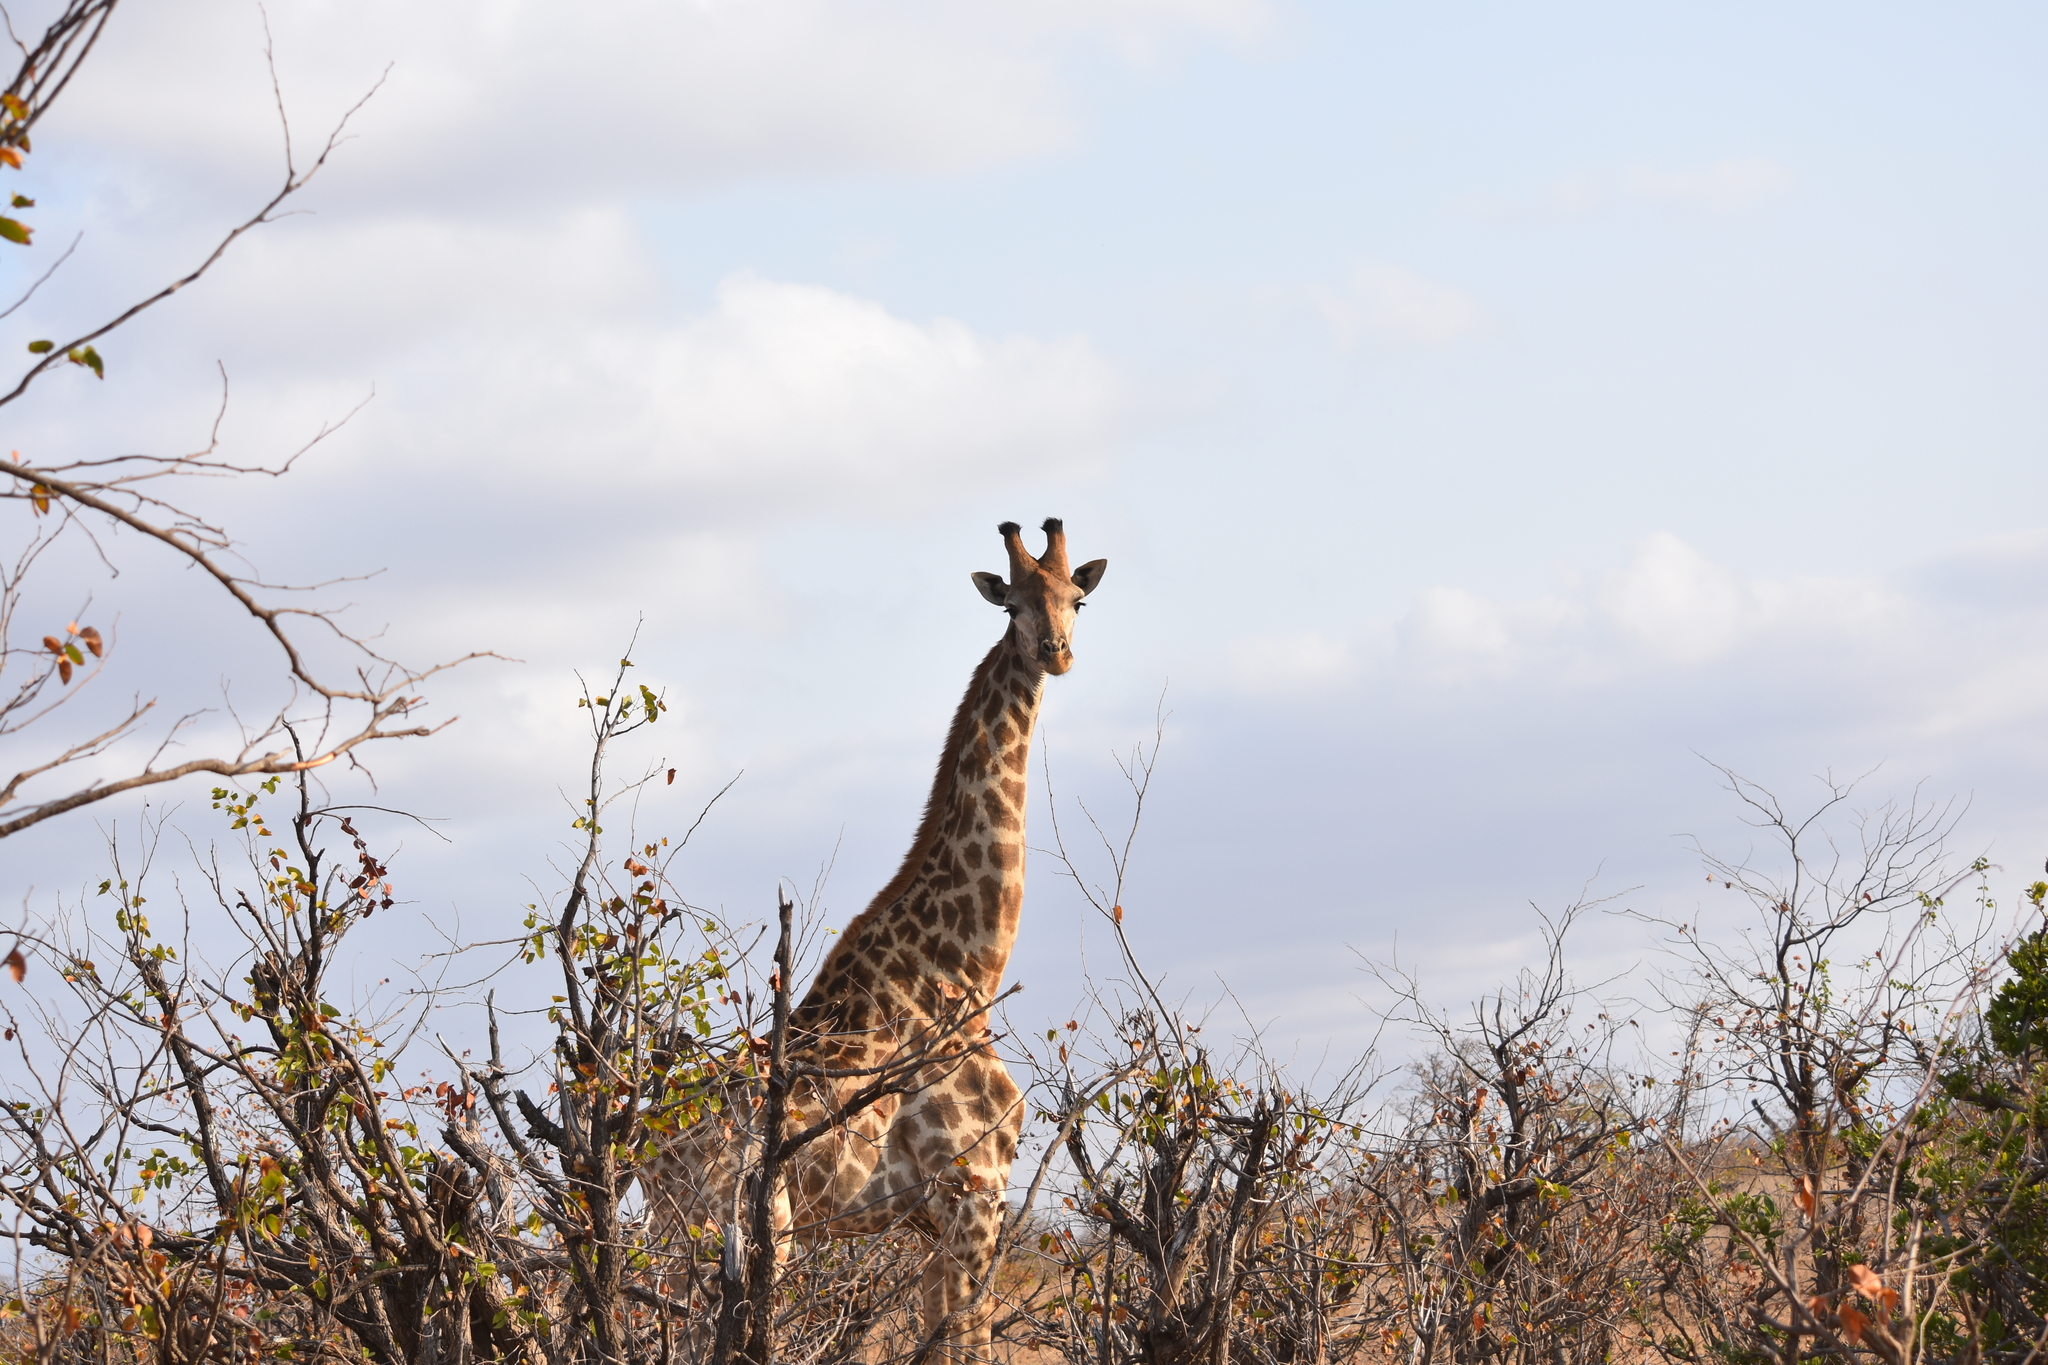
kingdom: Animalia
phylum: Chordata
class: Mammalia
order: Artiodactyla
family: Giraffidae
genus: Giraffa
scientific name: Giraffa giraffa
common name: Southern giraffe
